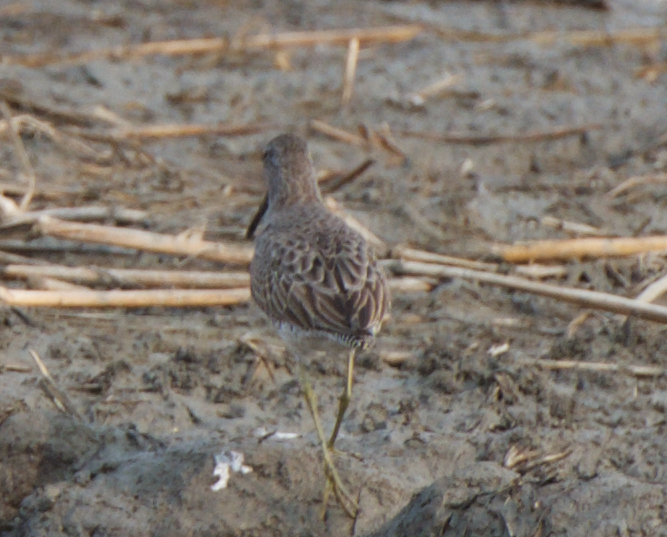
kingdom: Animalia
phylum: Chordata
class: Aves
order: Charadriiformes
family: Scolopacidae
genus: Limnodromus
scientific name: Limnodromus scolopaceus
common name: Long-billed dowitcher
